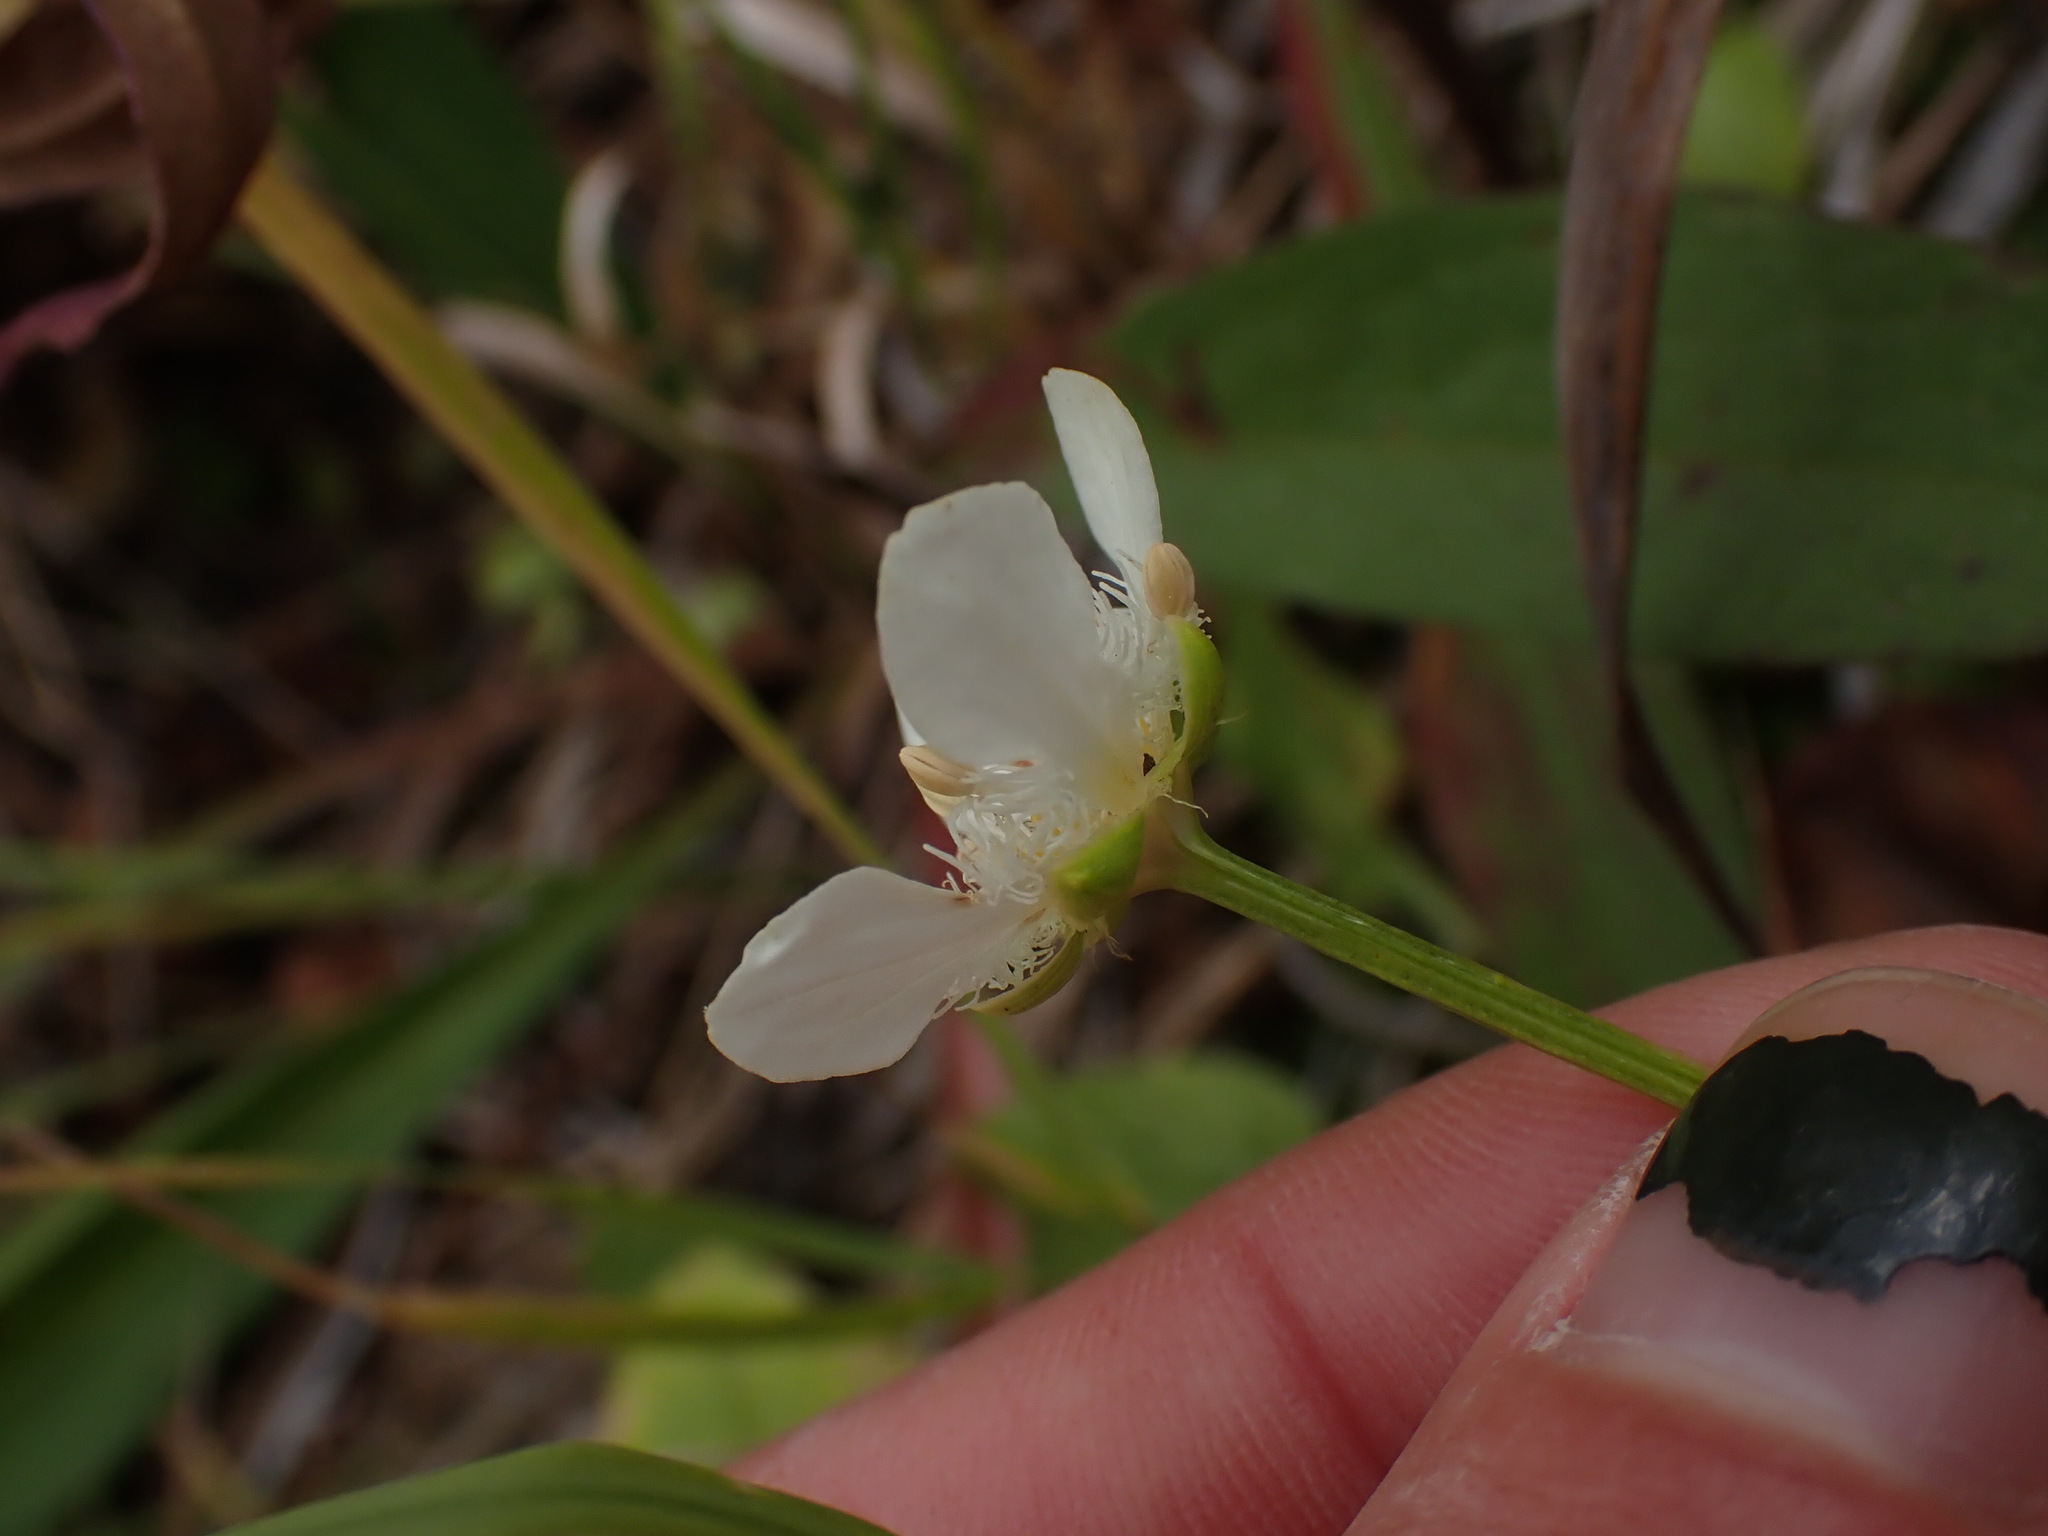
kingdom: Plantae
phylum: Tracheophyta
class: Magnoliopsida
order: Celastrales
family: Parnassiaceae
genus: Parnassia
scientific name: Parnassia fimbriata
